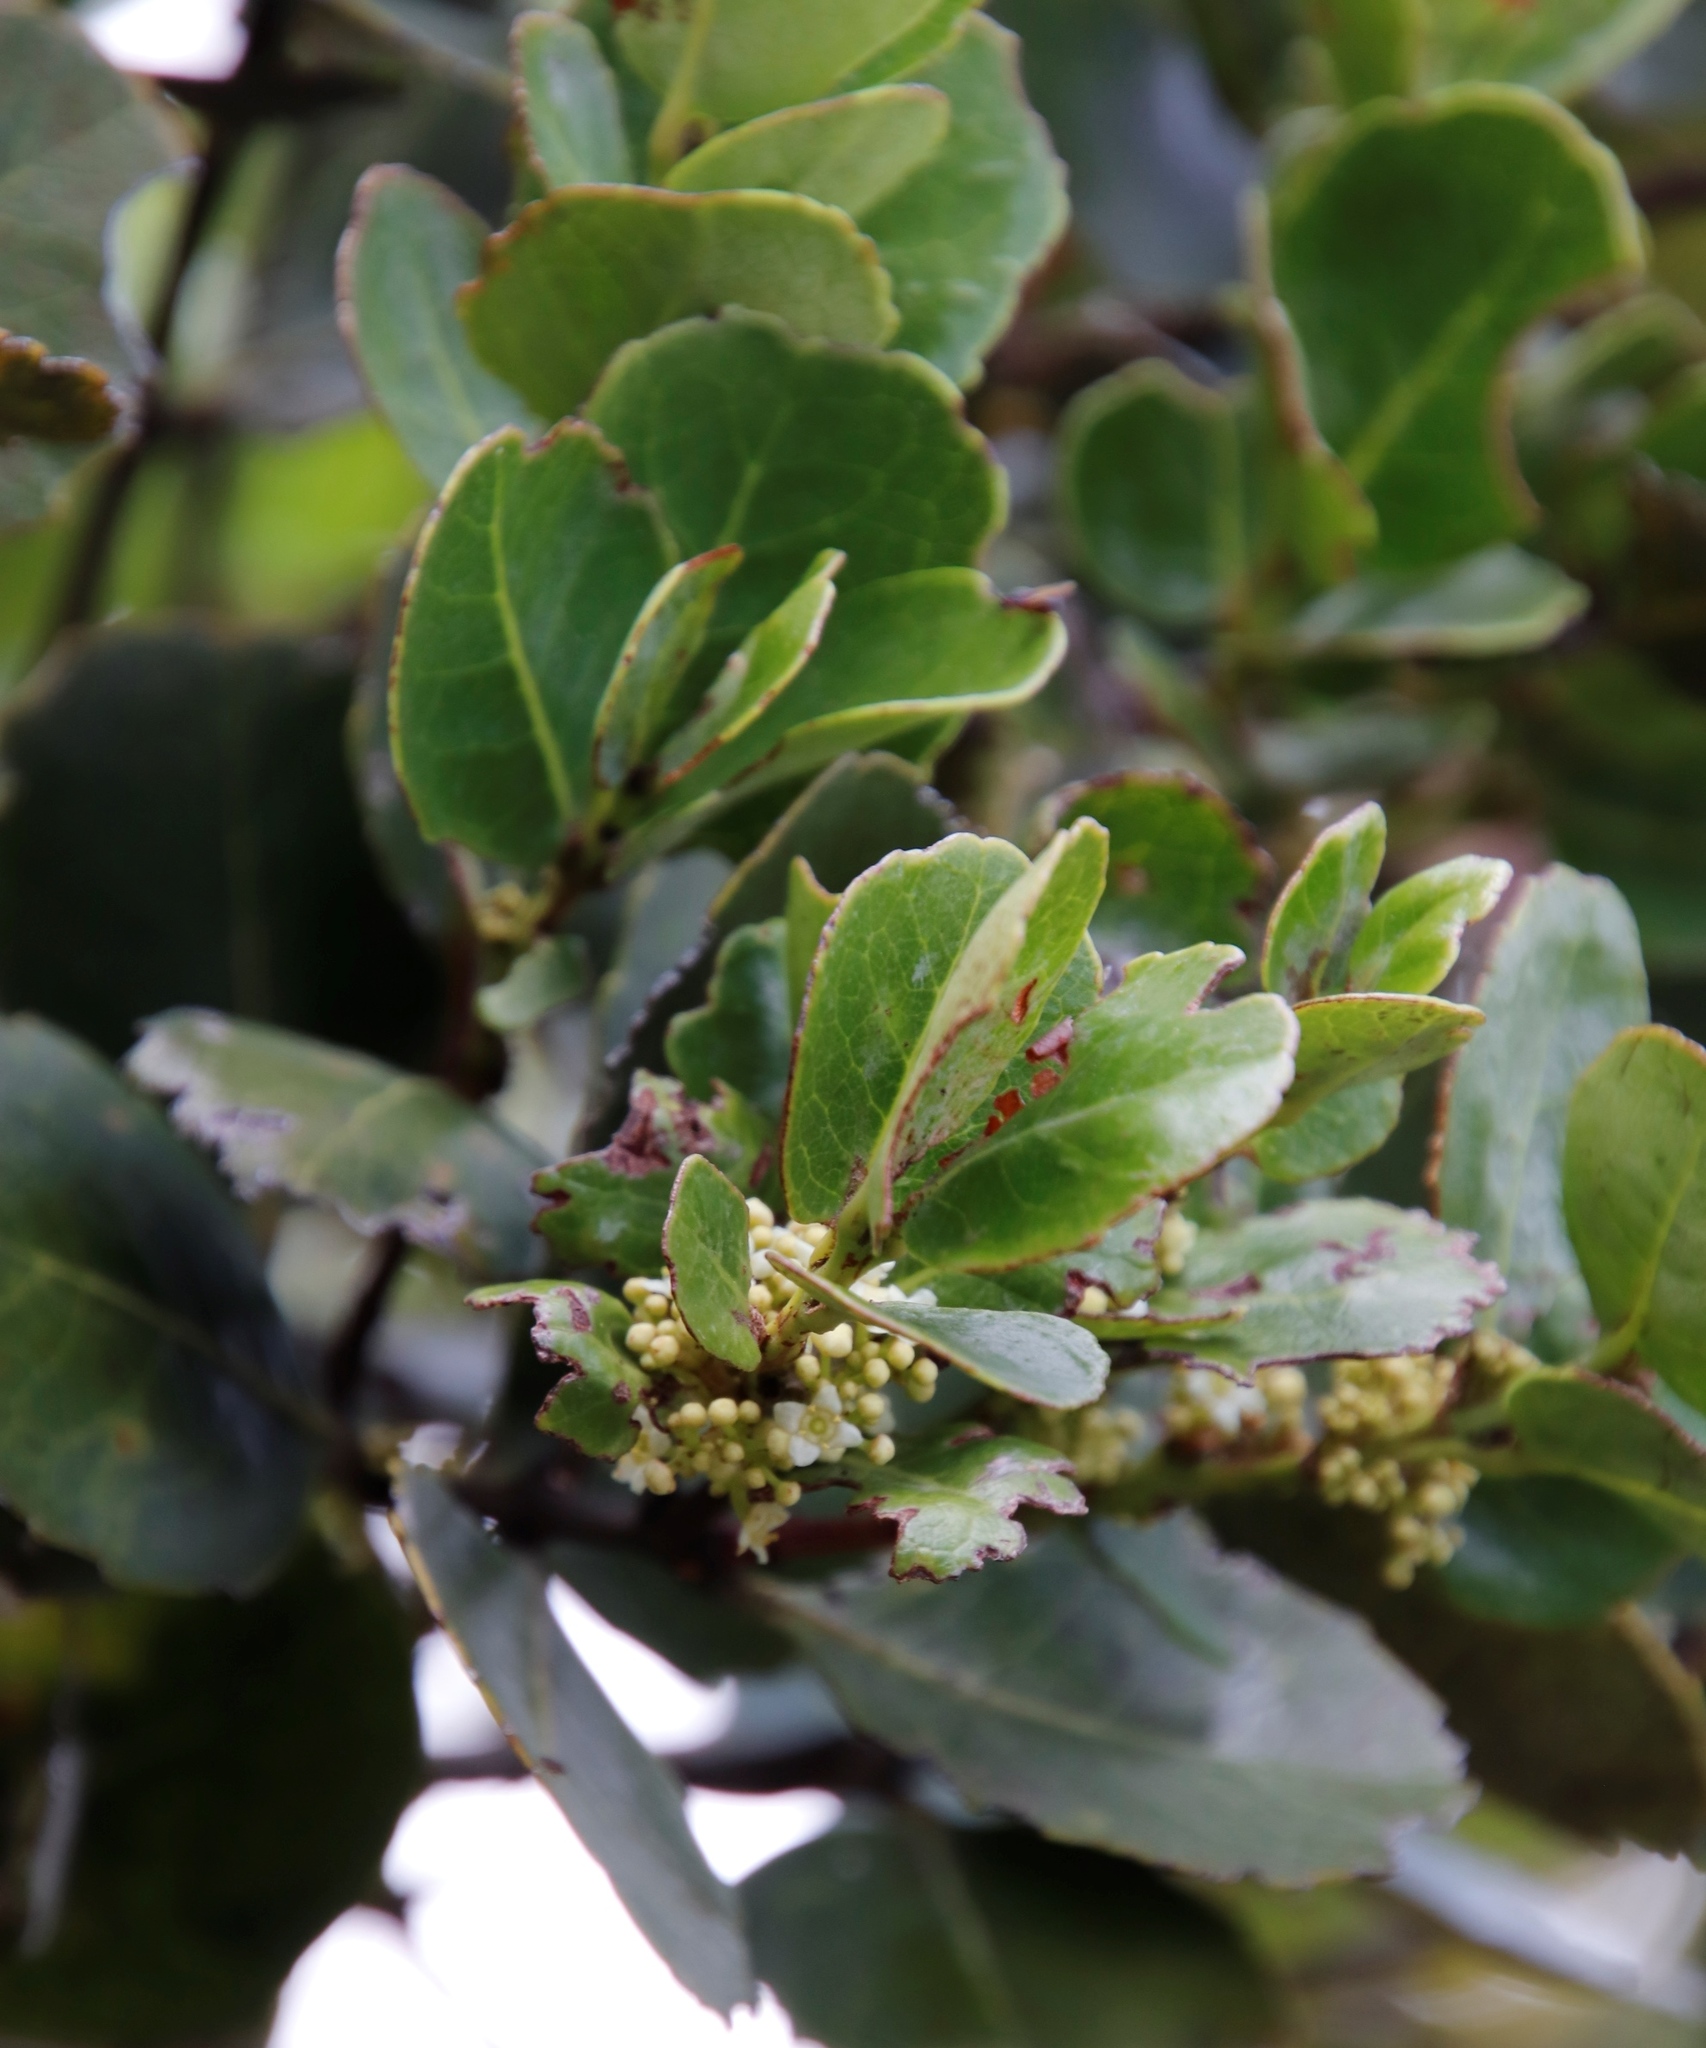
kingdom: Plantae
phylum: Tracheophyta
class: Magnoliopsida
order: Celastrales
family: Celastraceae
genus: Cassine
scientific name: Cassine peragua
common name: Cape saffron
